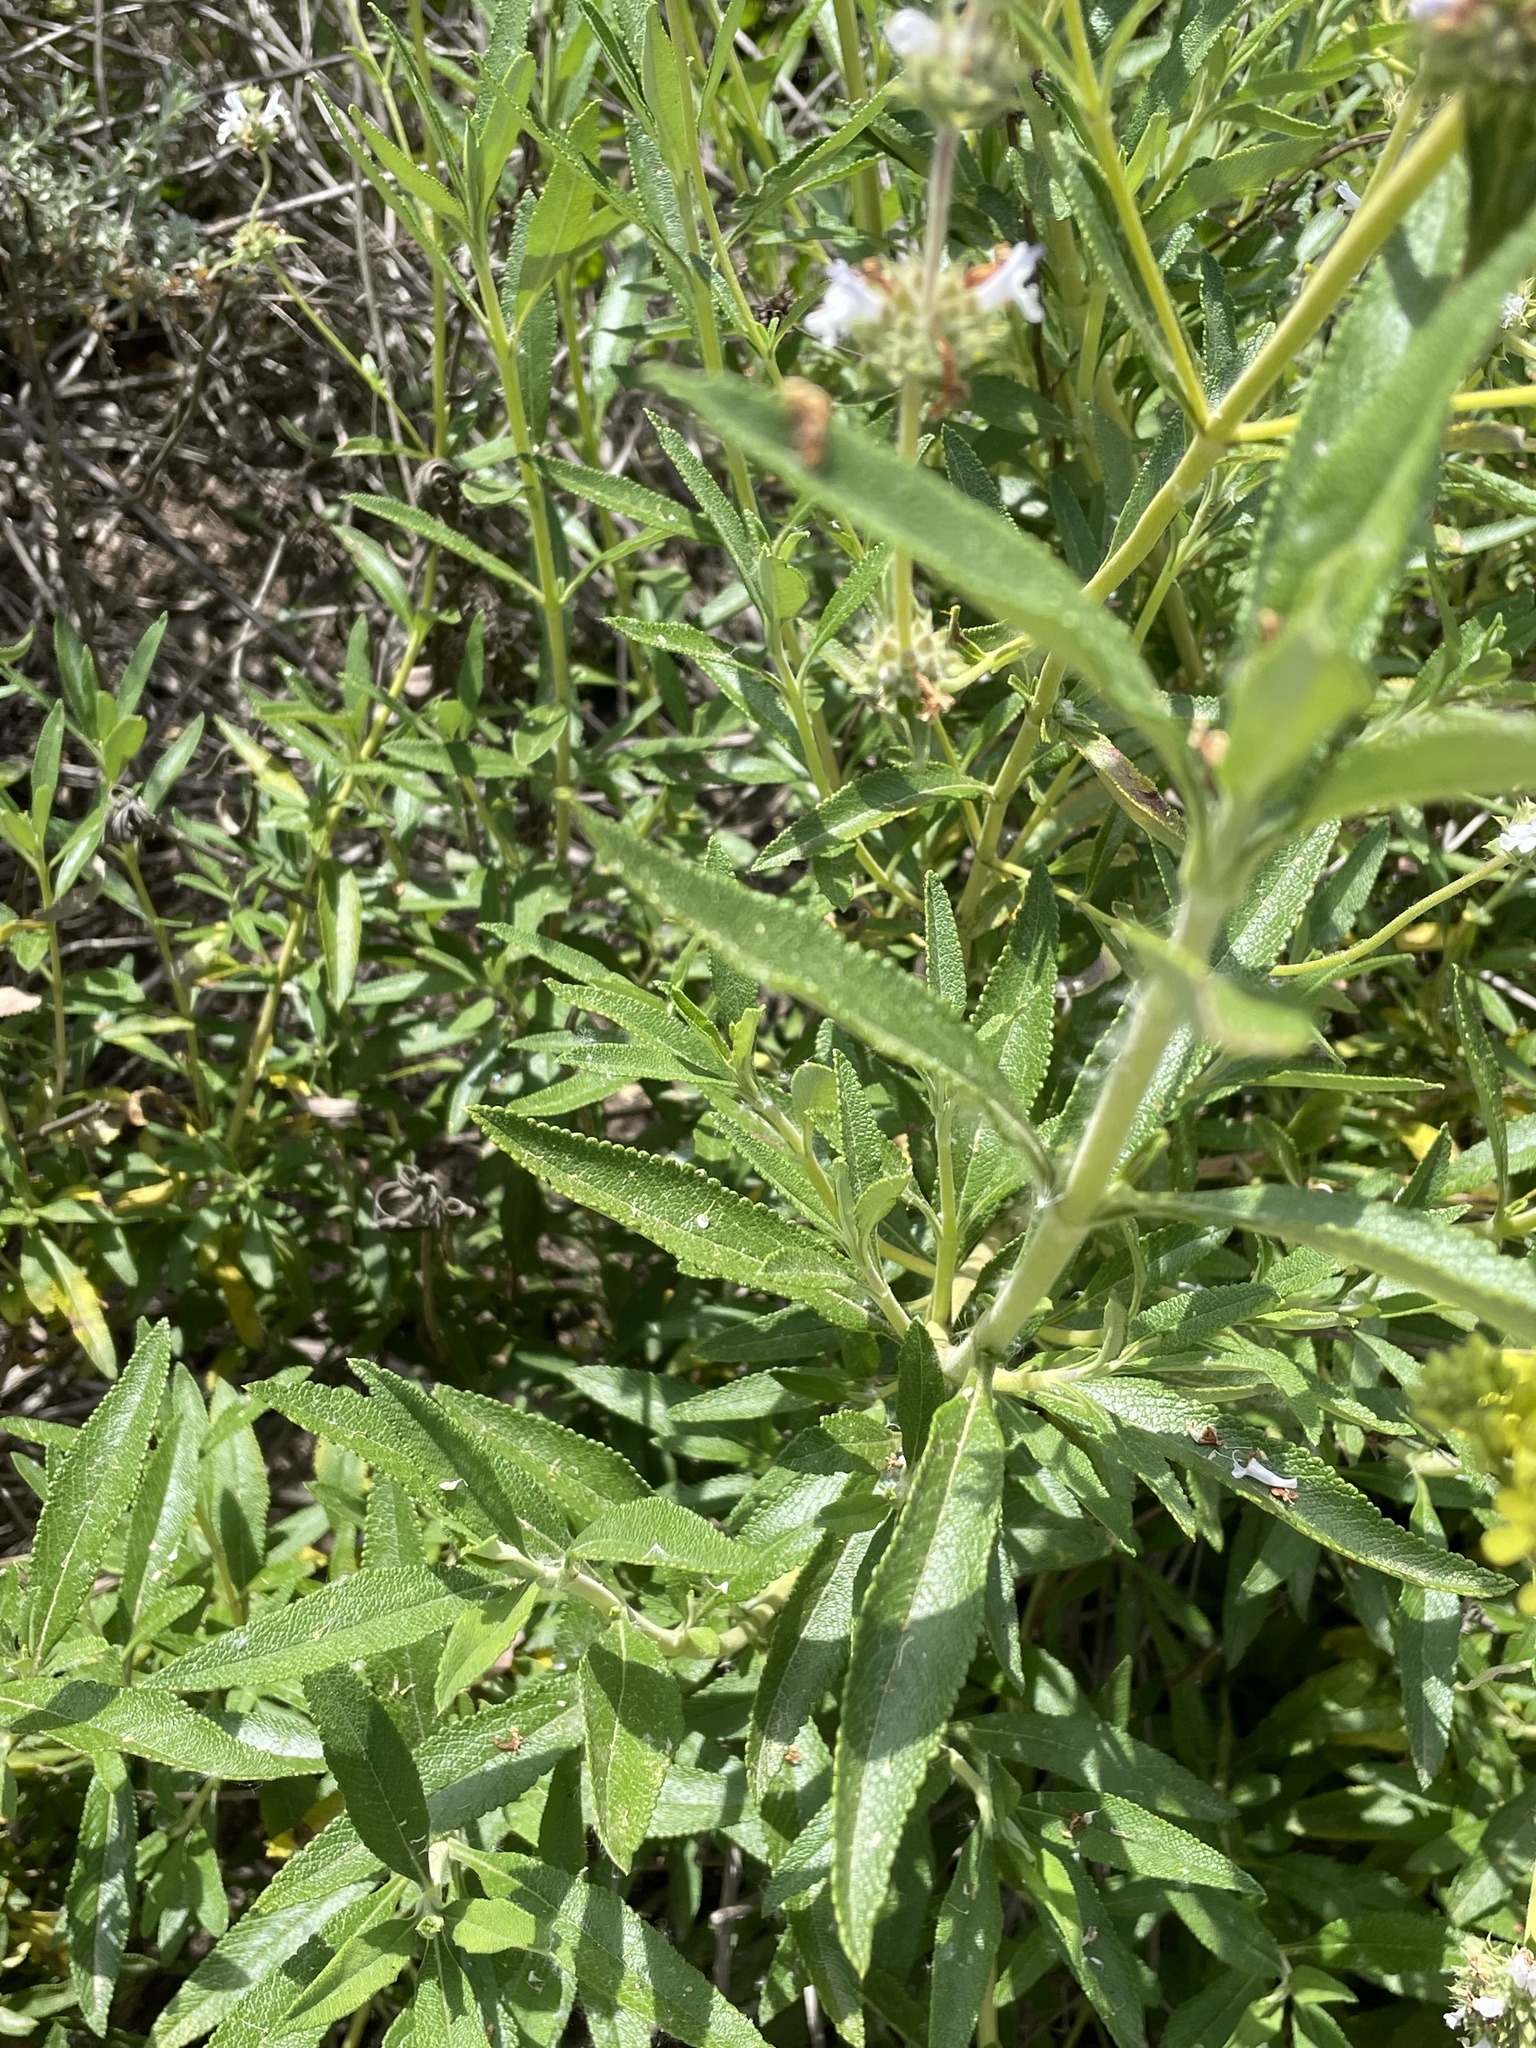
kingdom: Plantae
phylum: Tracheophyta
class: Magnoliopsida
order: Lamiales
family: Lamiaceae
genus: Salvia
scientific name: Salvia mellifera
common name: Black sage
